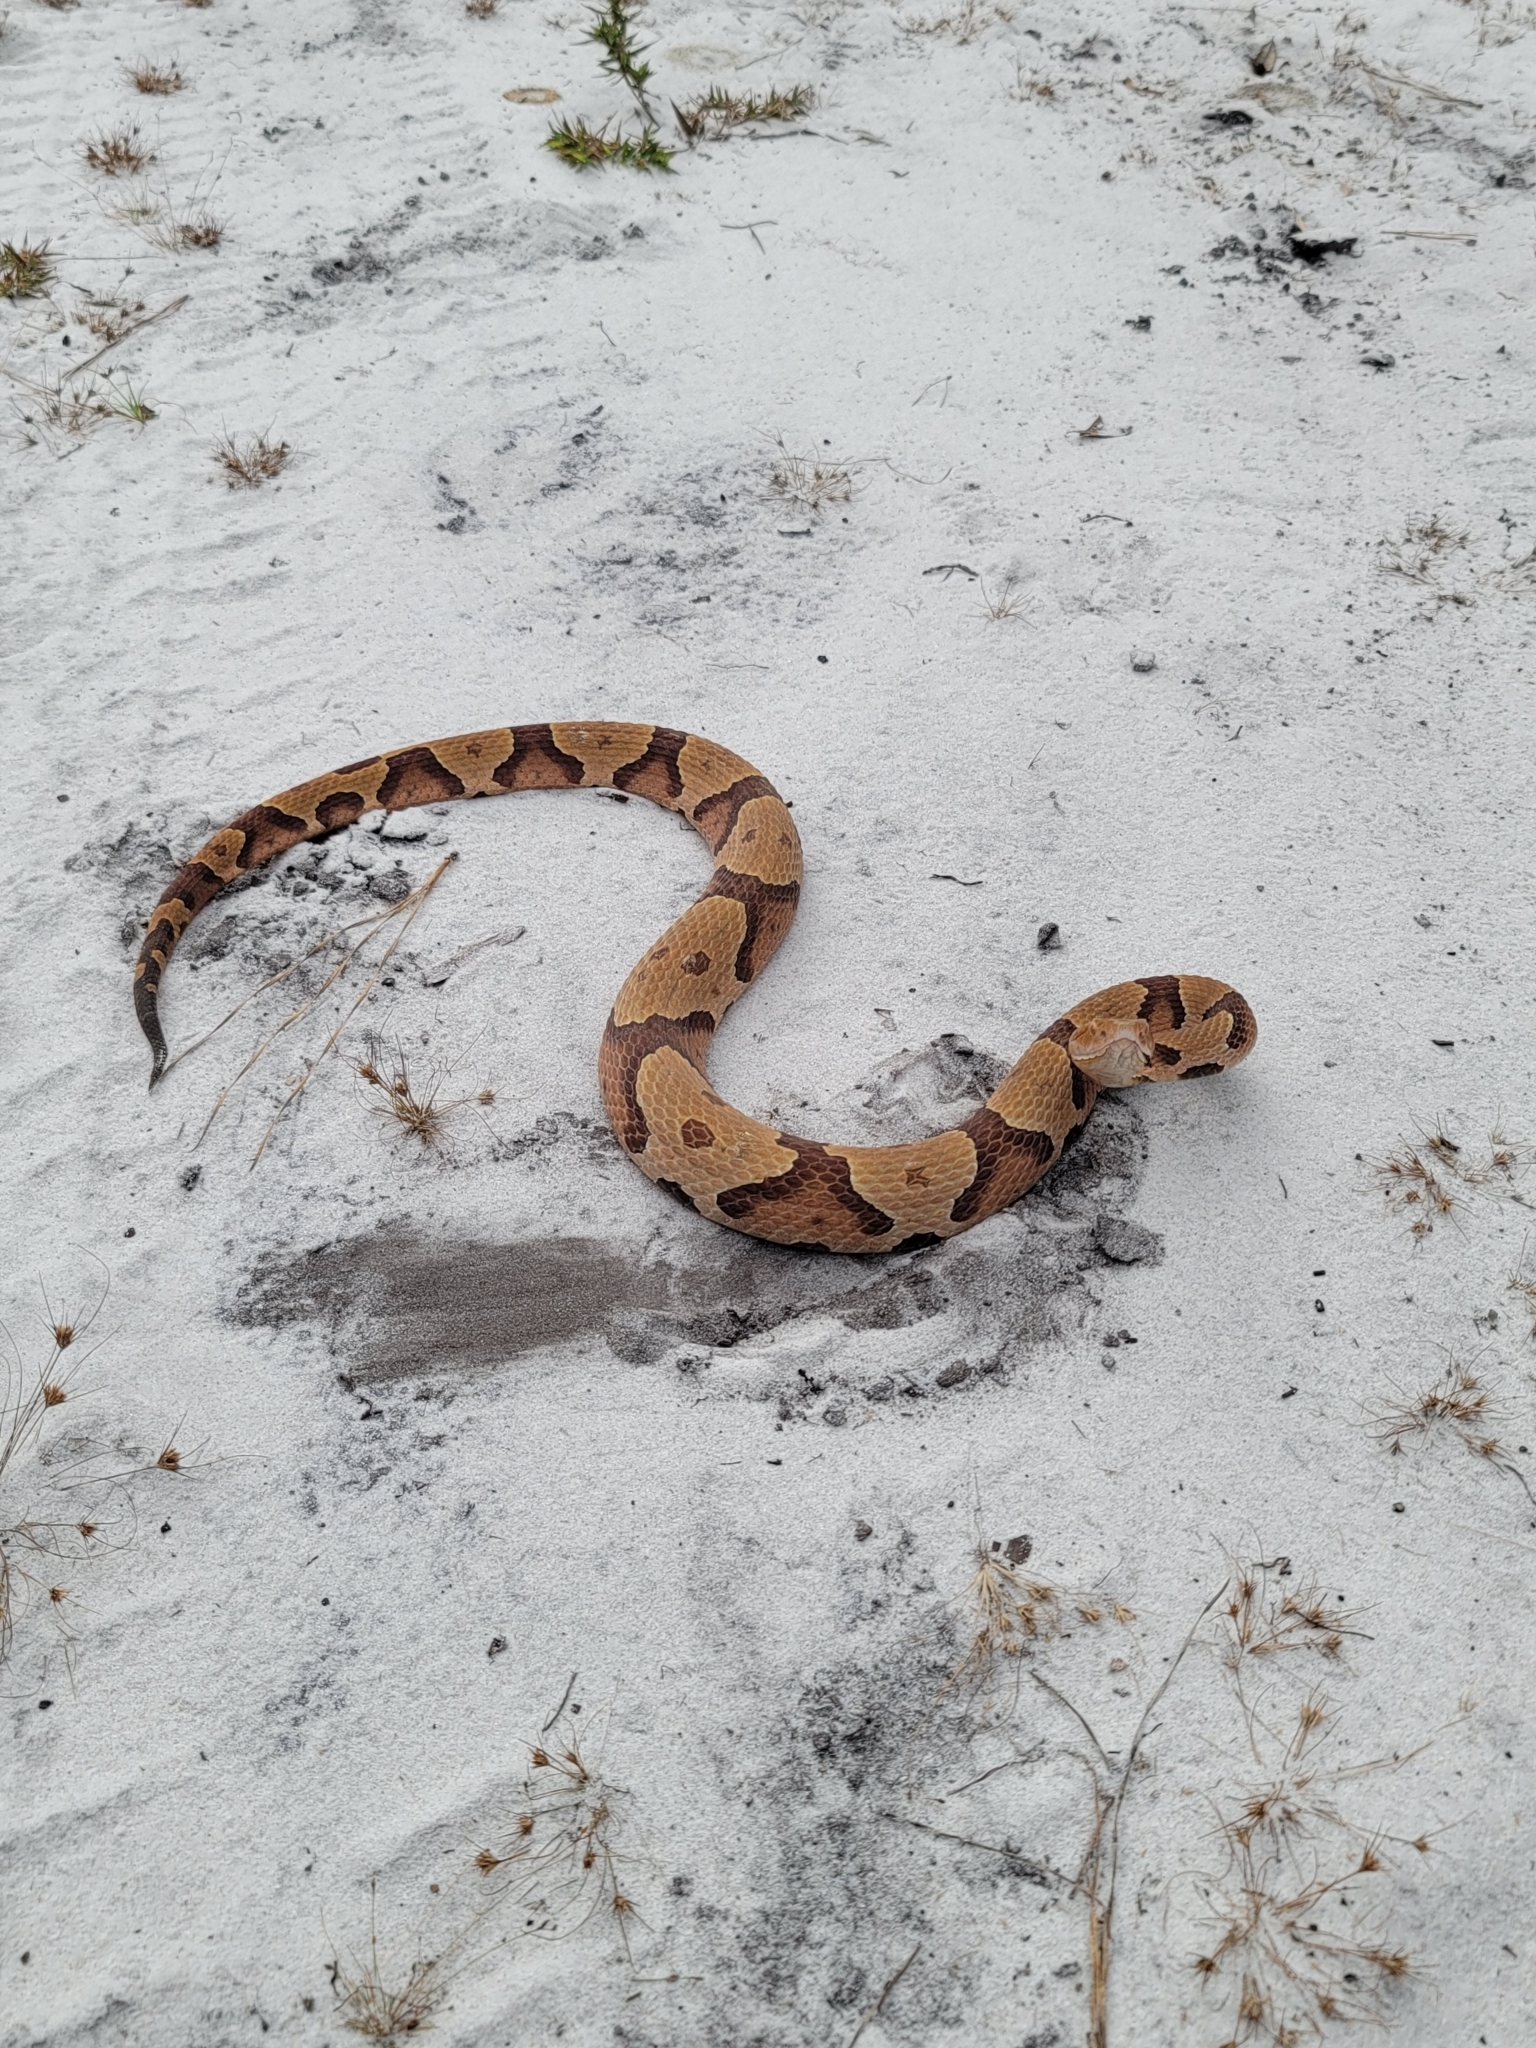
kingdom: Animalia
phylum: Chordata
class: Squamata
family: Viperidae
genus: Agkistrodon
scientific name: Agkistrodon contortrix
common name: Northern copperhead
